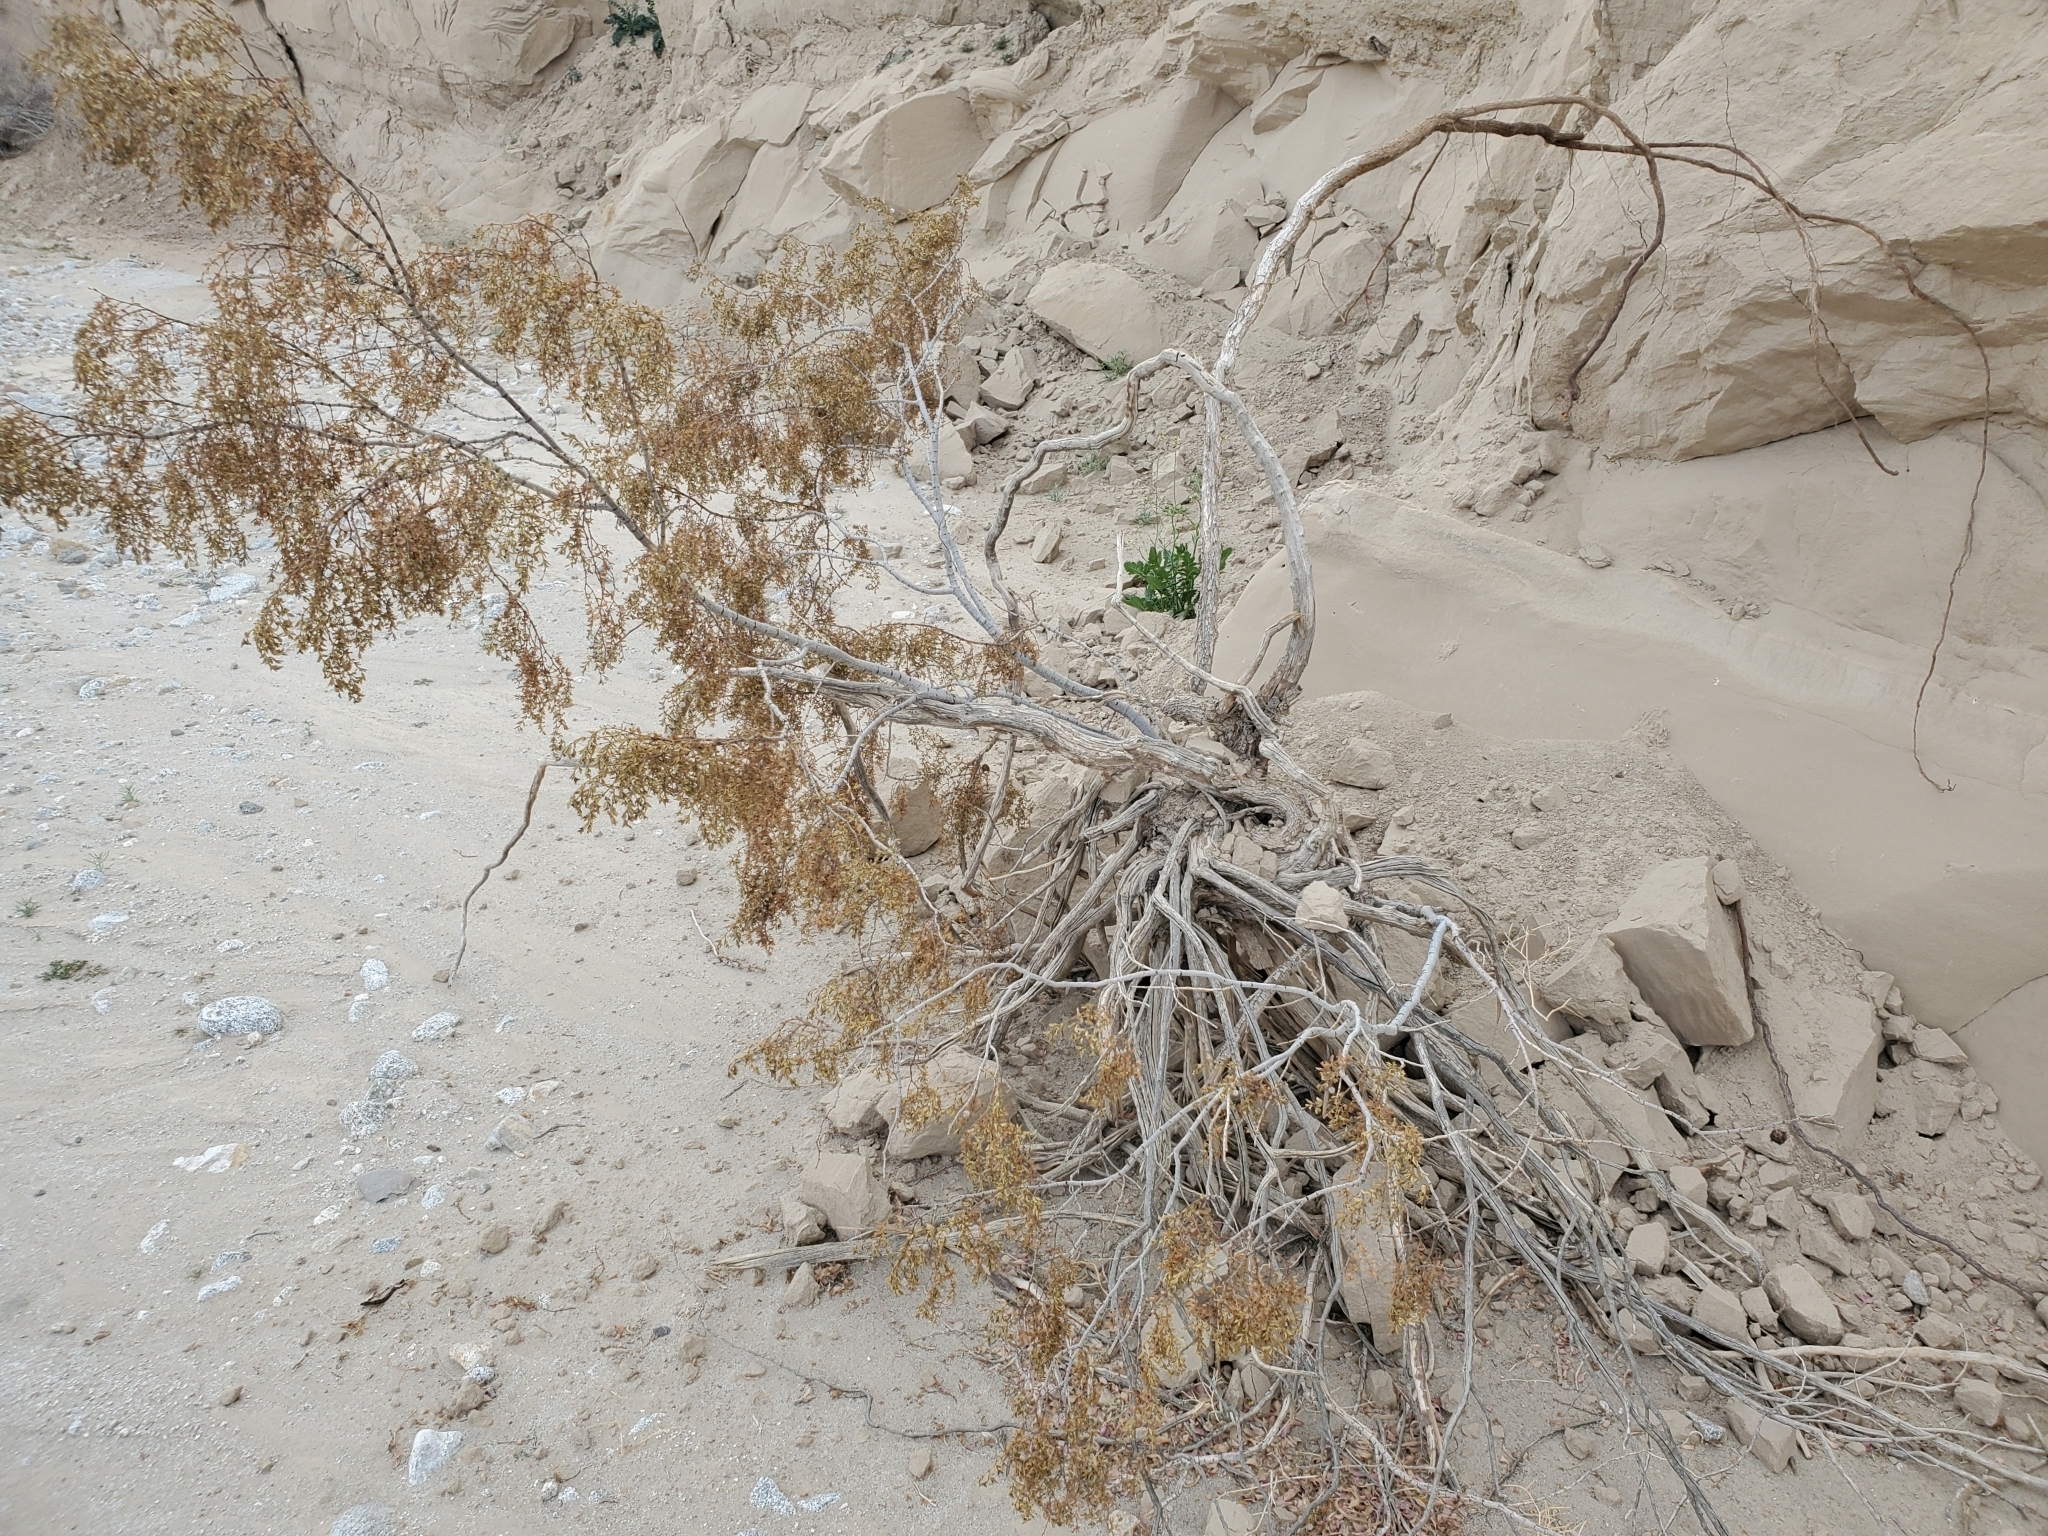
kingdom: Plantae
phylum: Tracheophyta
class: Magnoliopsida
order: Zygophyllales
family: Zygophyllaceae
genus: Larrea
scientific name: Larrea tridentata
